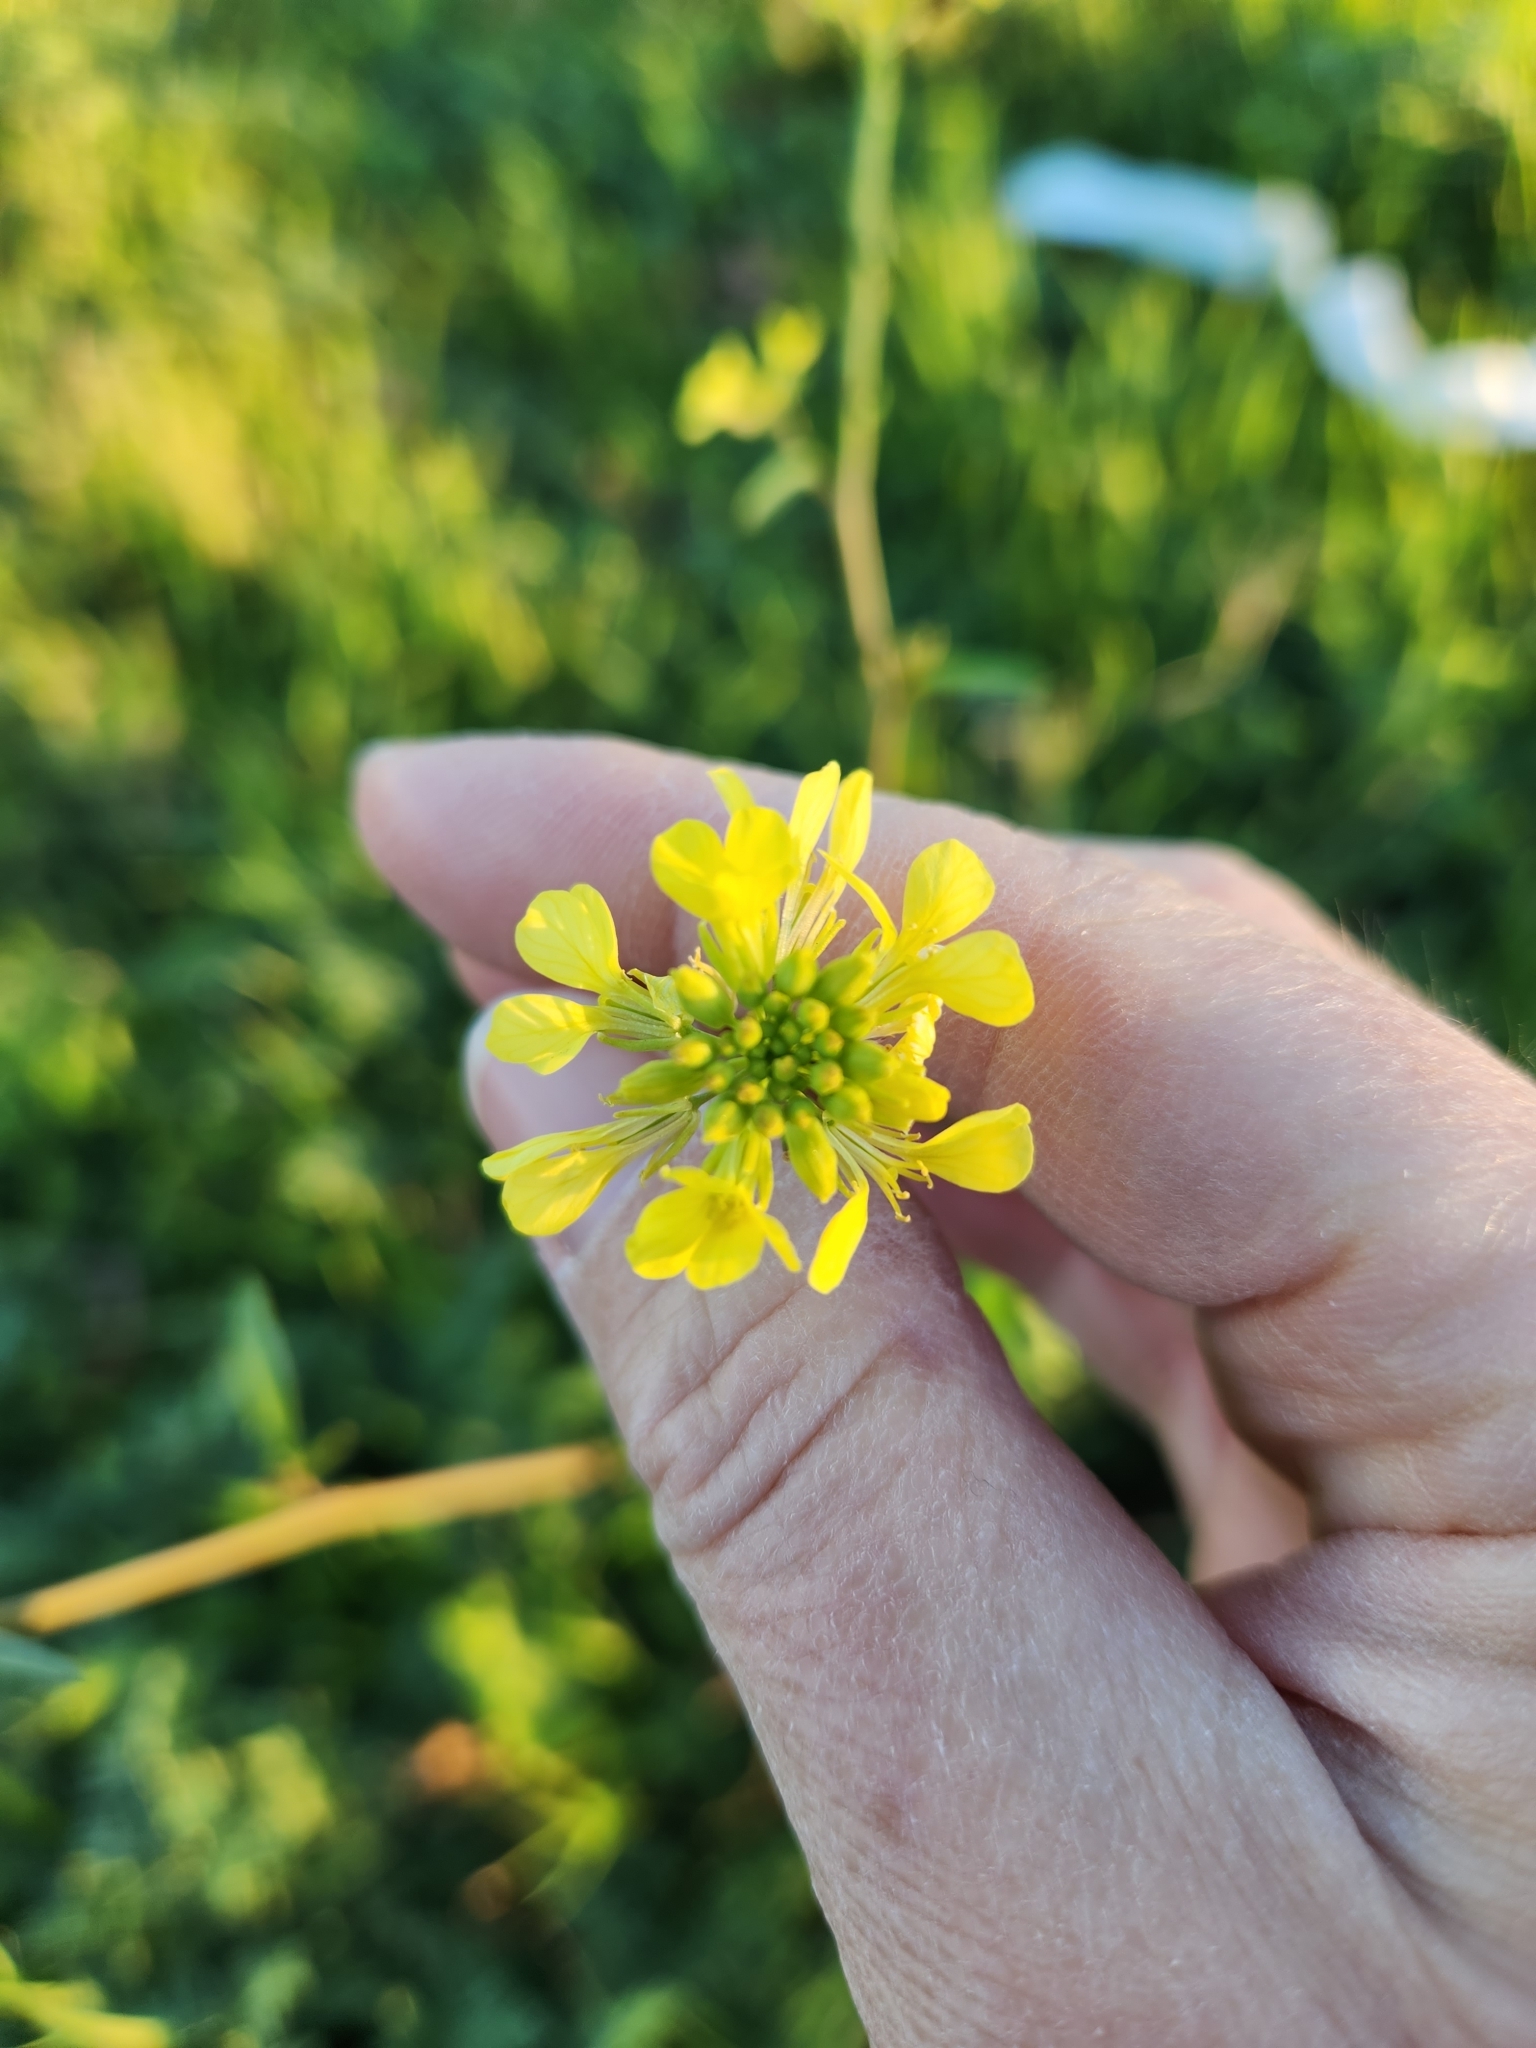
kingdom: Plantae
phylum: Tracheophyta
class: Magnoliopsida
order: Brassicales
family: Brassicaceae
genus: Rapistrum
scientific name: Rapistrum rugosum
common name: Annual bastardcabbage
